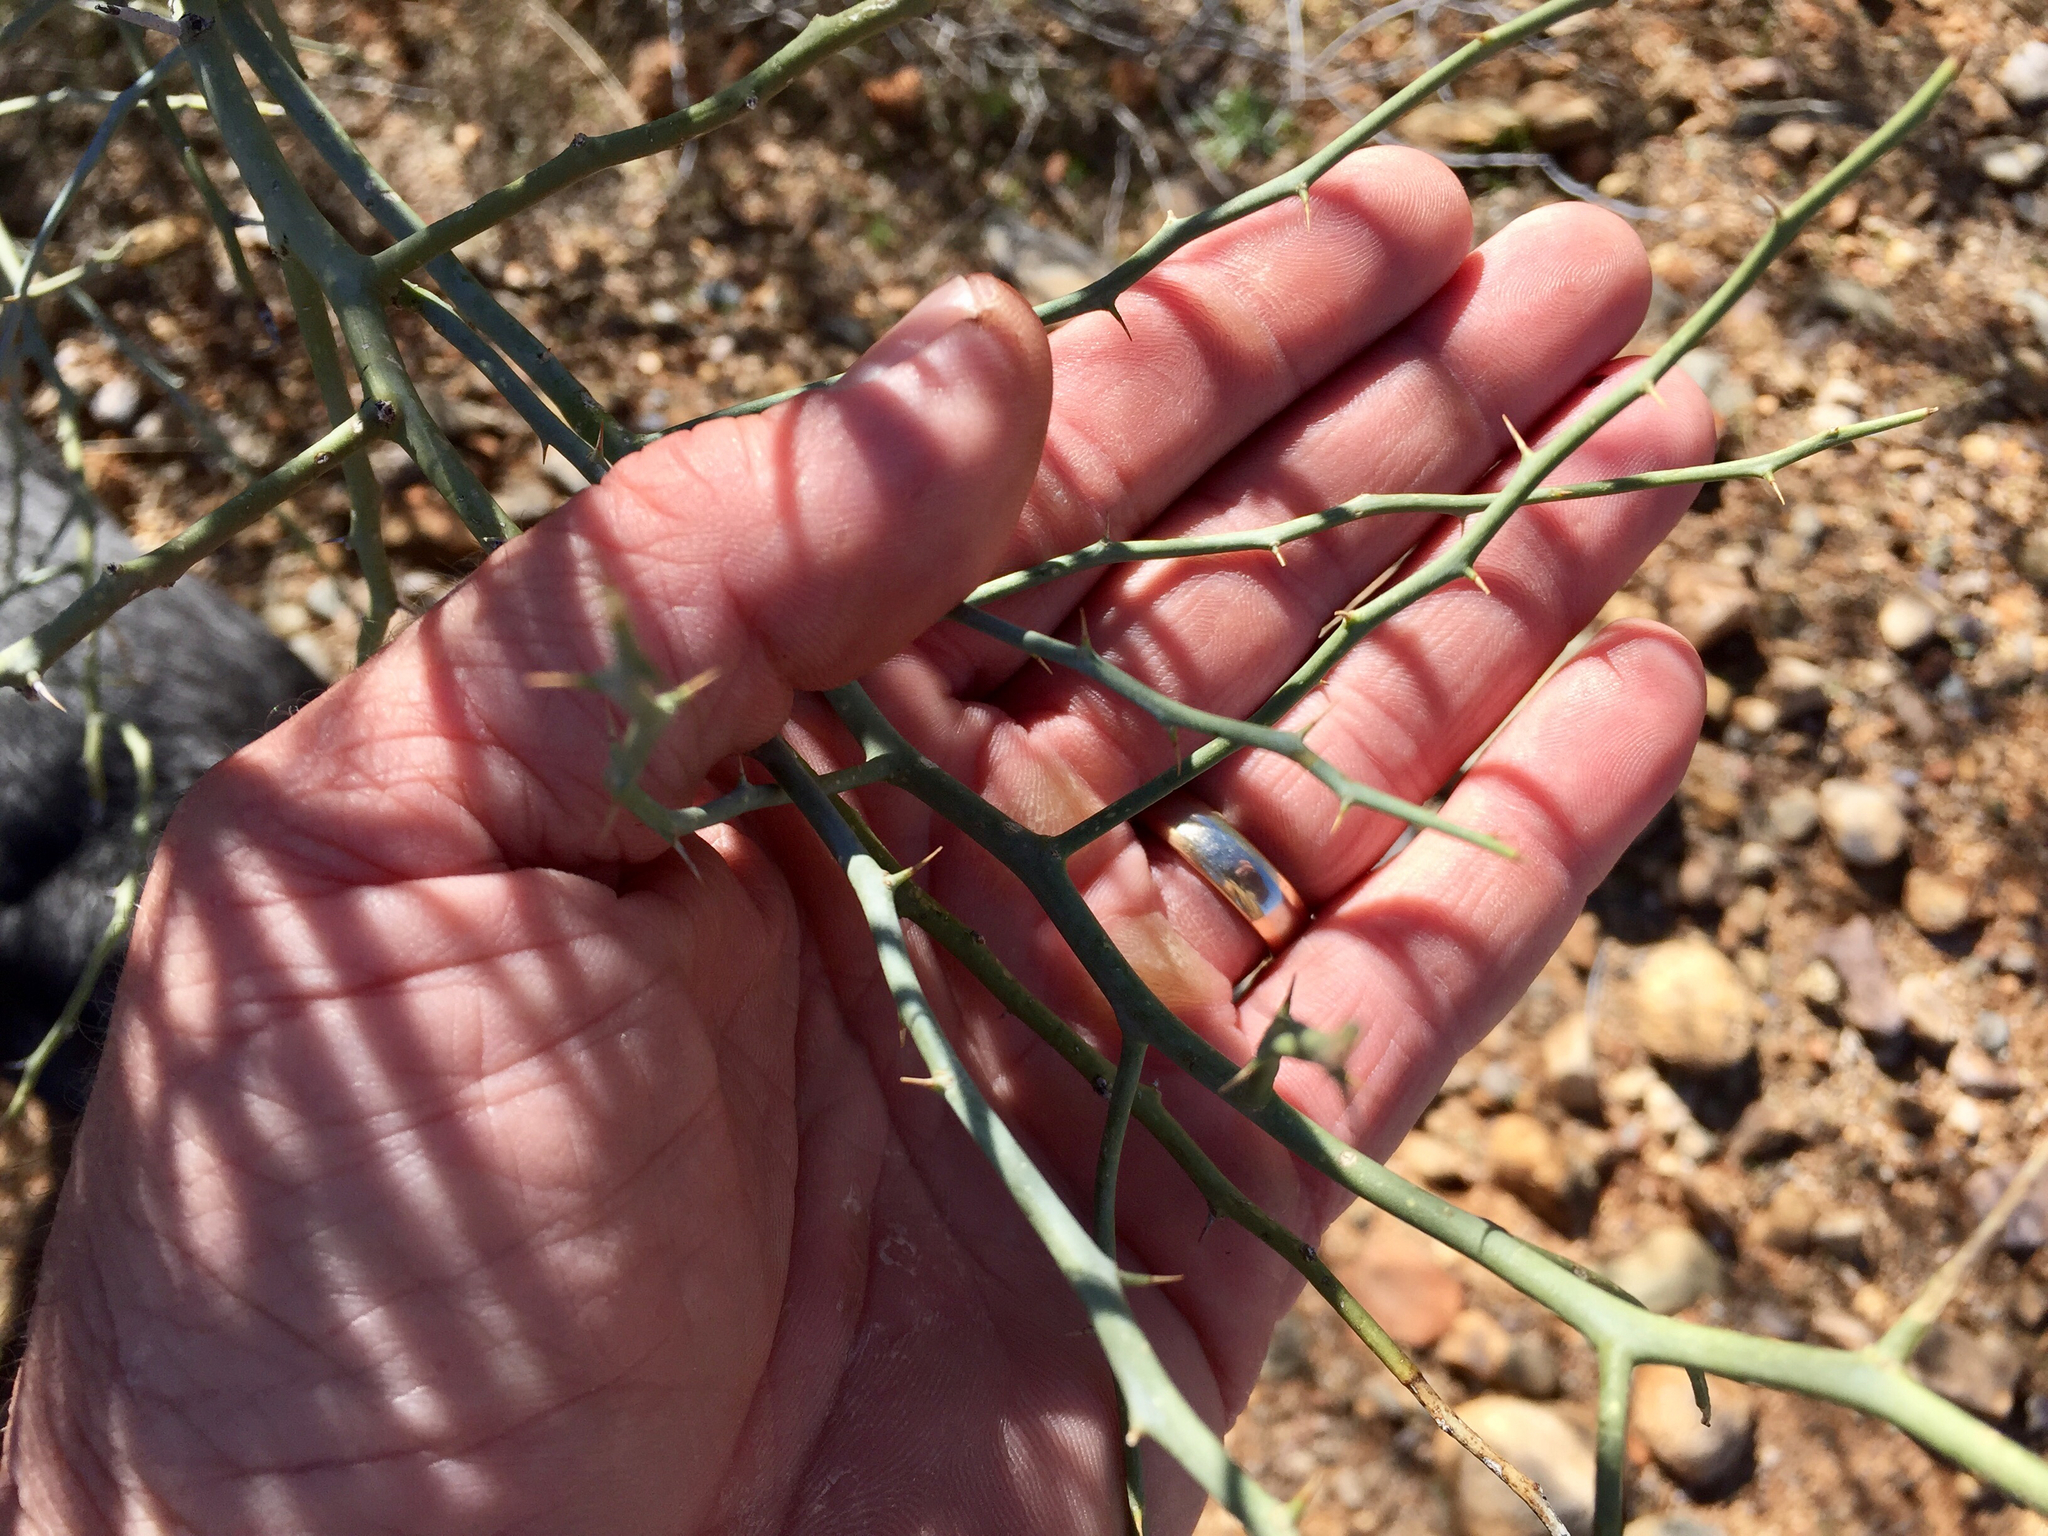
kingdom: Plantae
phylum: Tracheophyta
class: Magnoliopsida
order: Fabales
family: Fabaceae
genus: Parkinsonia
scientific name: Parkinsonia florida
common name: Blue paloverde
